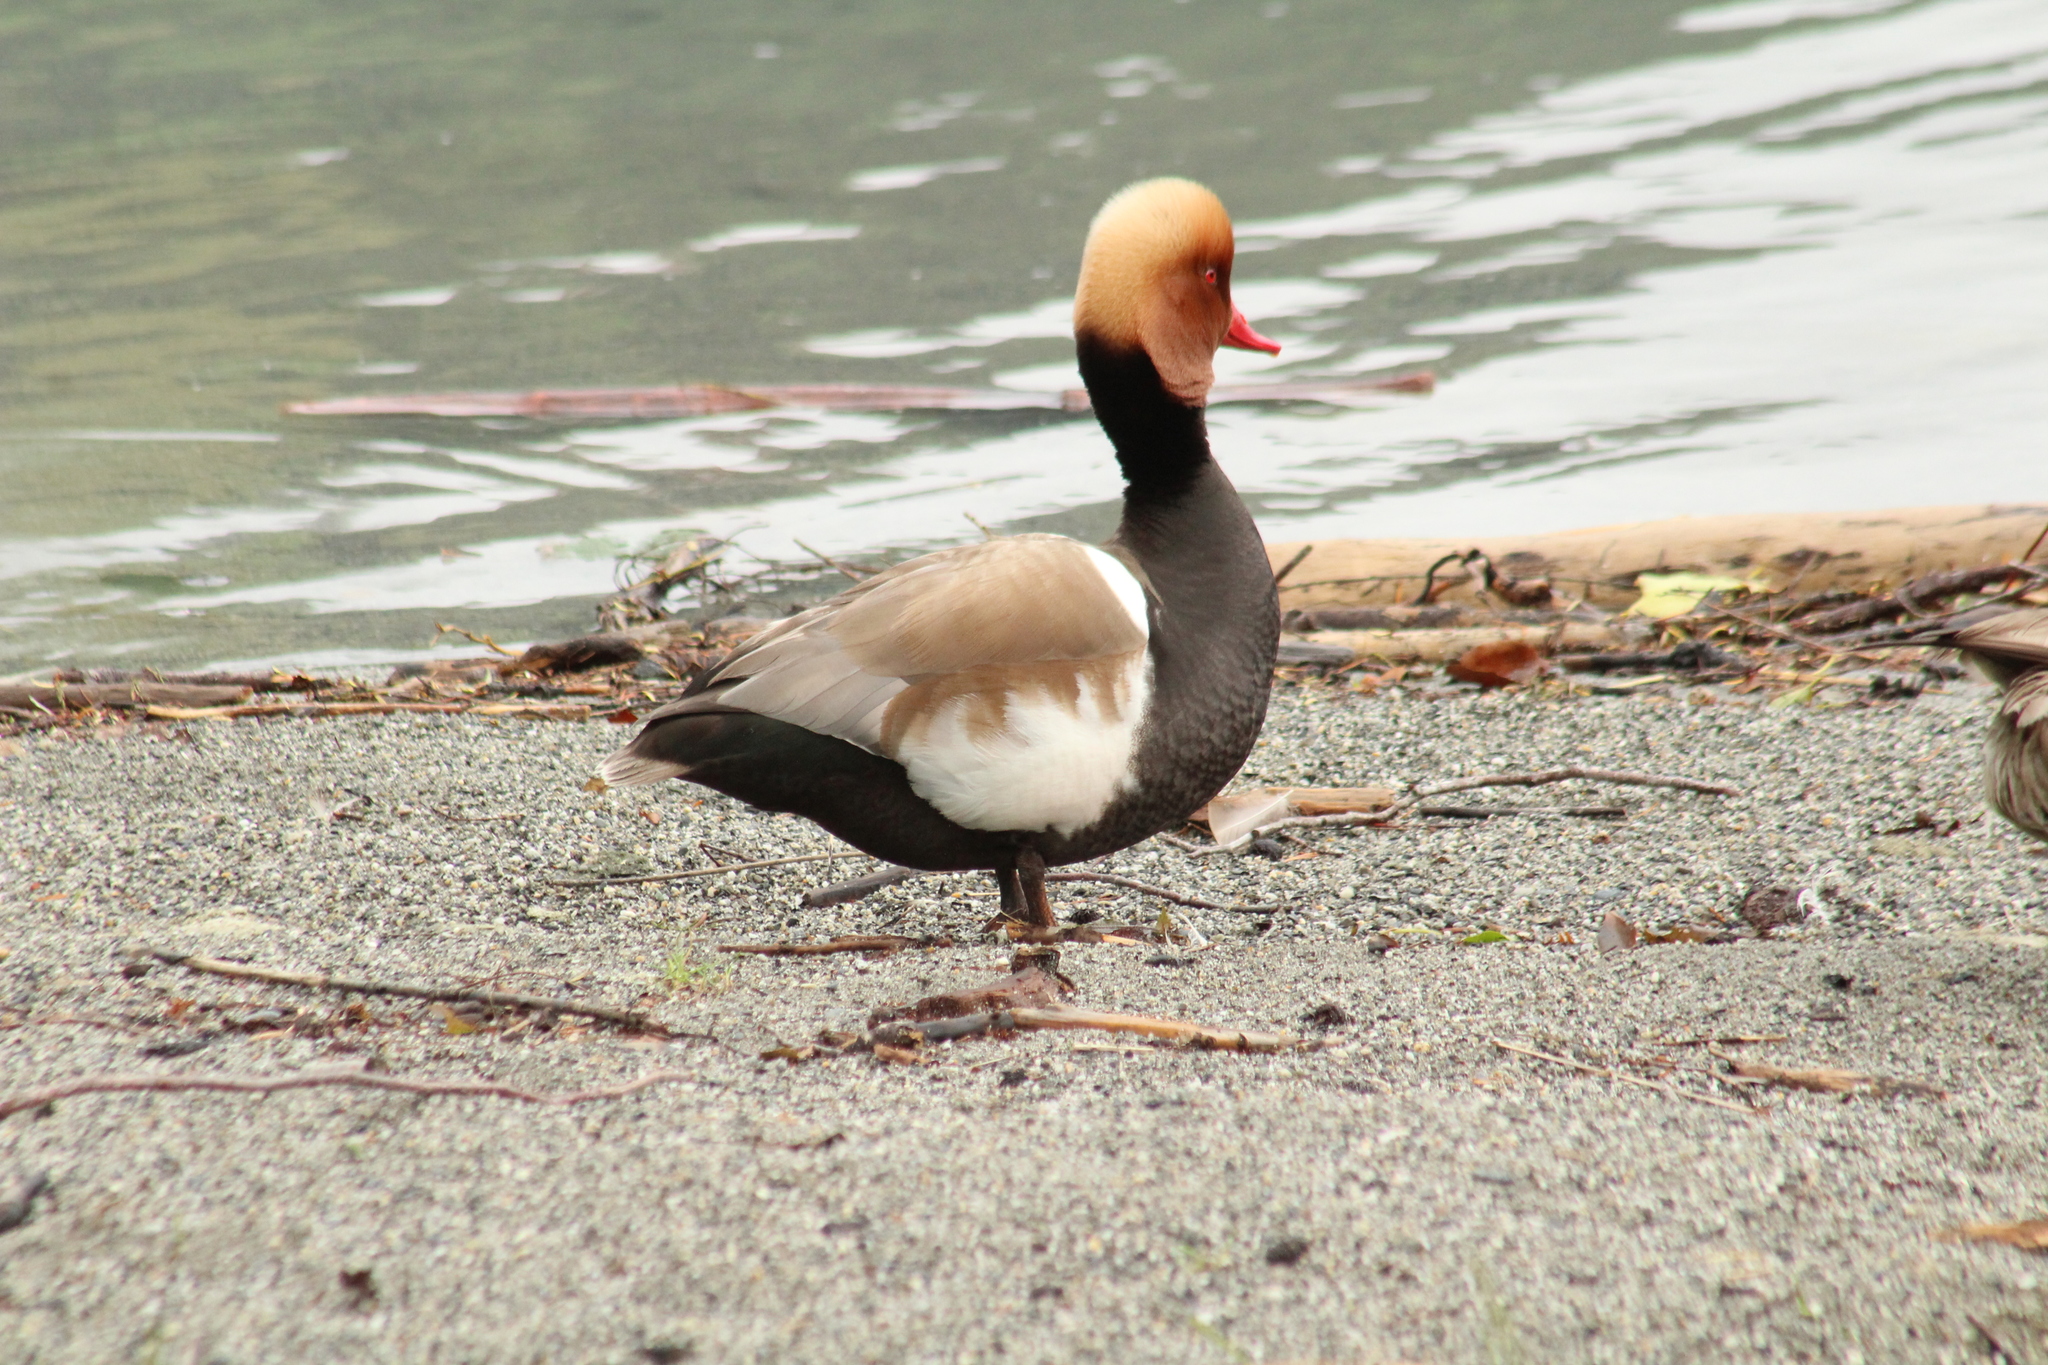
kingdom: Animalia
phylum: Chordata
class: Aves
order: Anseriformes
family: Anatidae
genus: Netta
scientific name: Netta rufina
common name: Red-crested pochard
